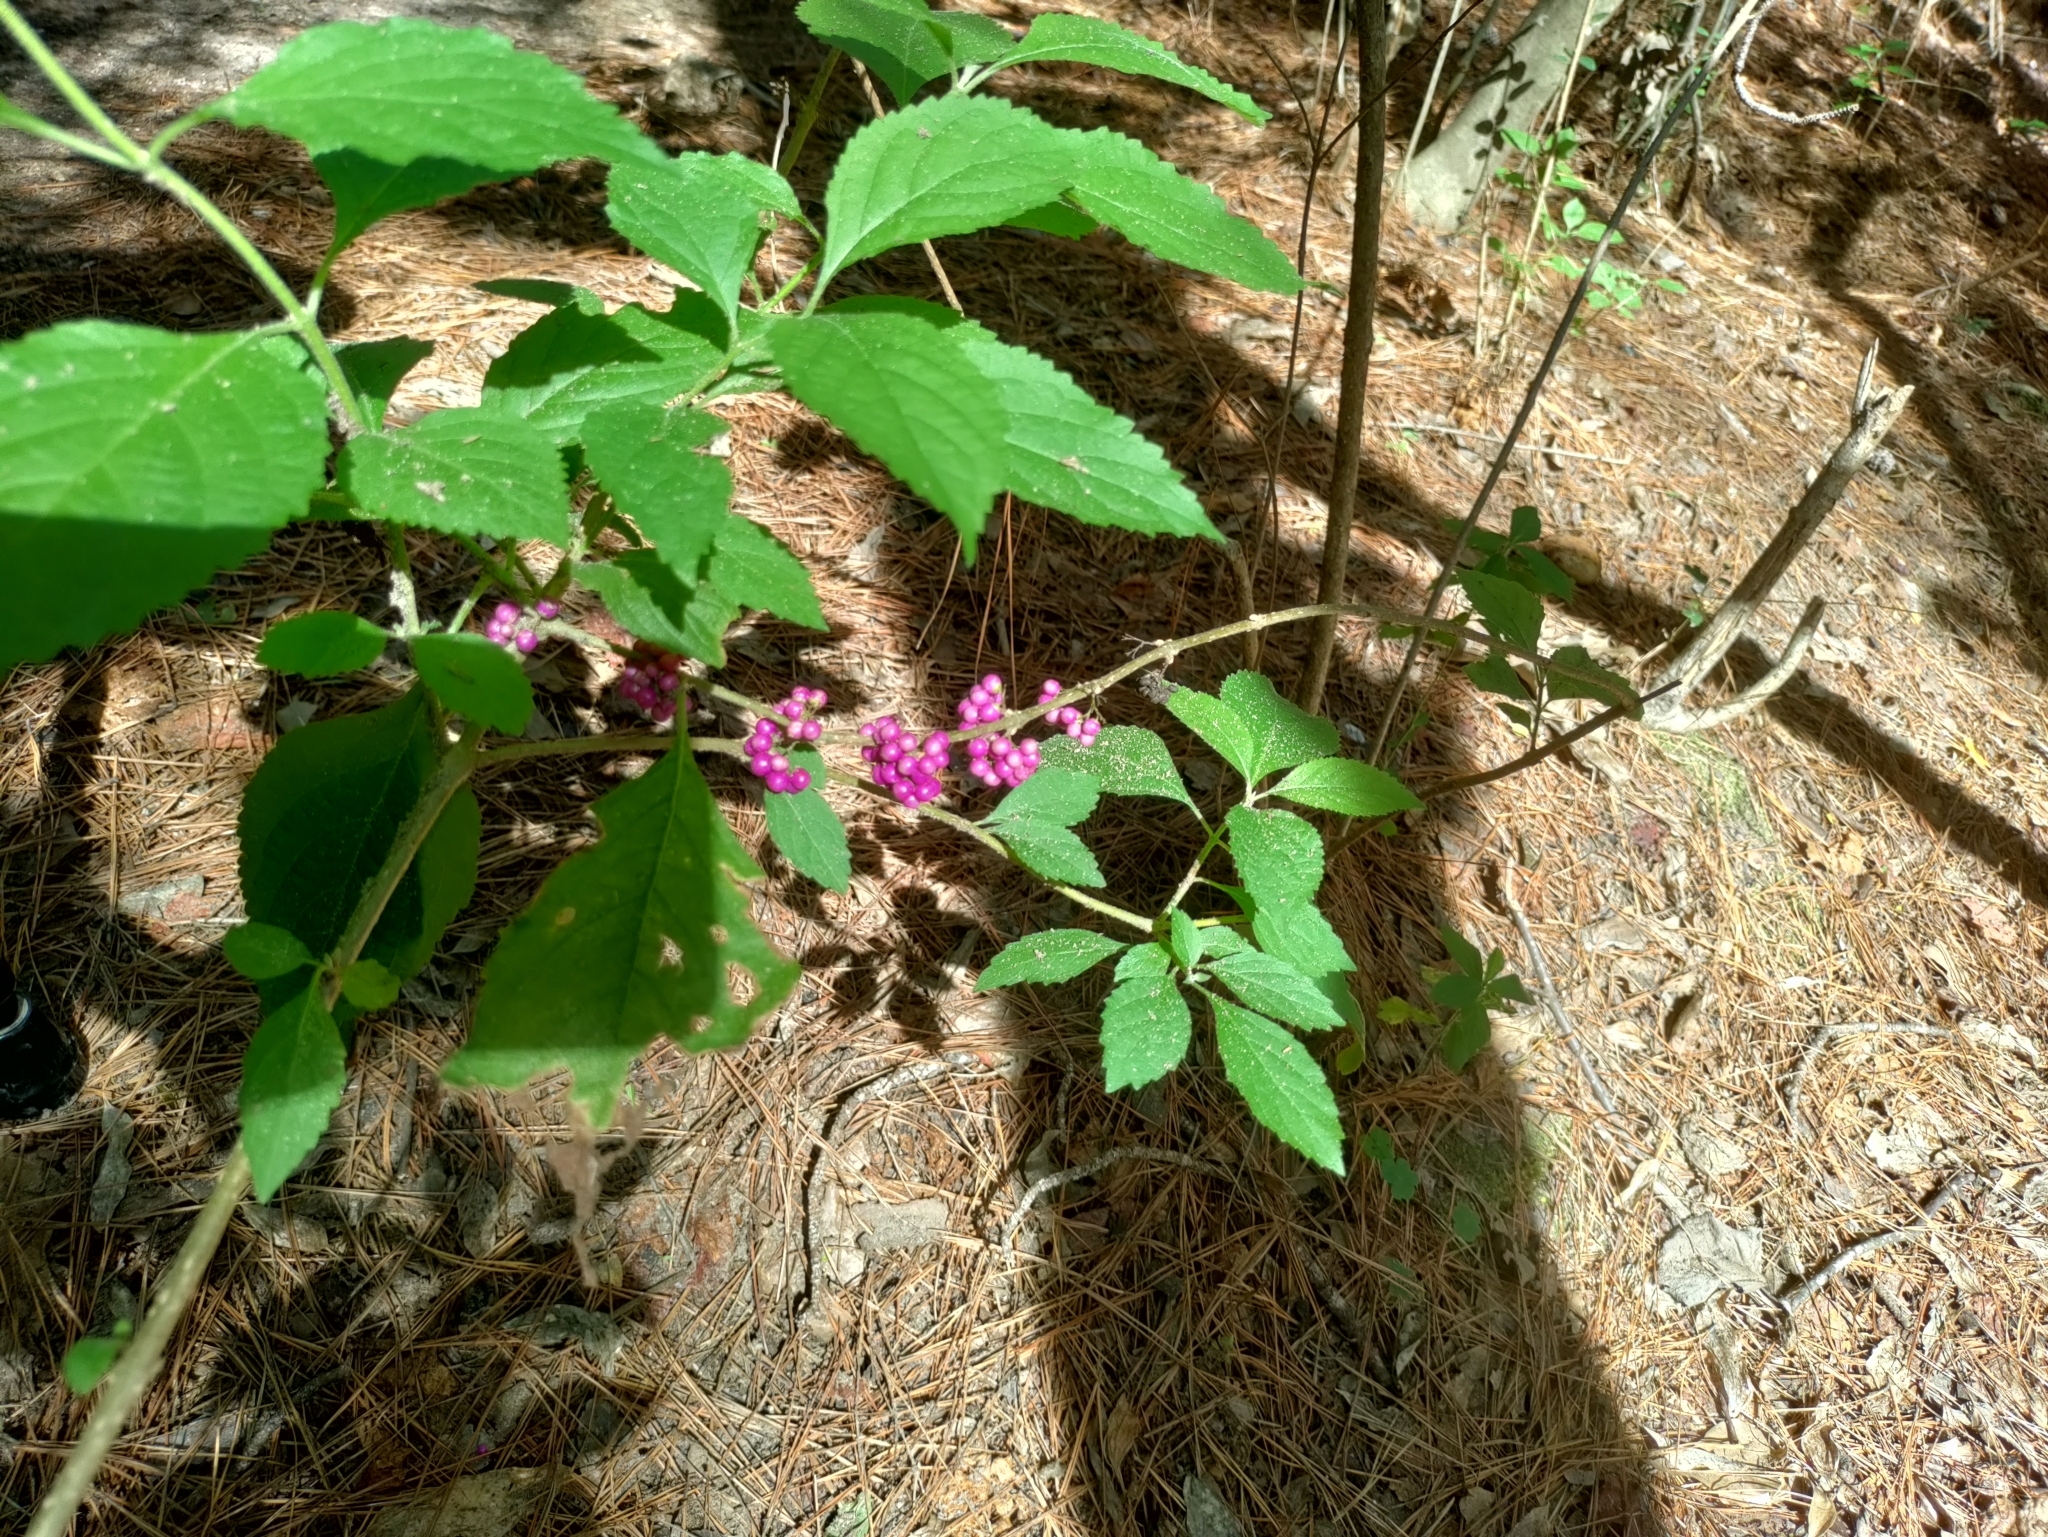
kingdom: Plantae
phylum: Tracheophyta
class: Magnoliopsida
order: Lamiales
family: Lamiaceae
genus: Callicarpa
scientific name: Callicarpa americana
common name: American beautyberry
